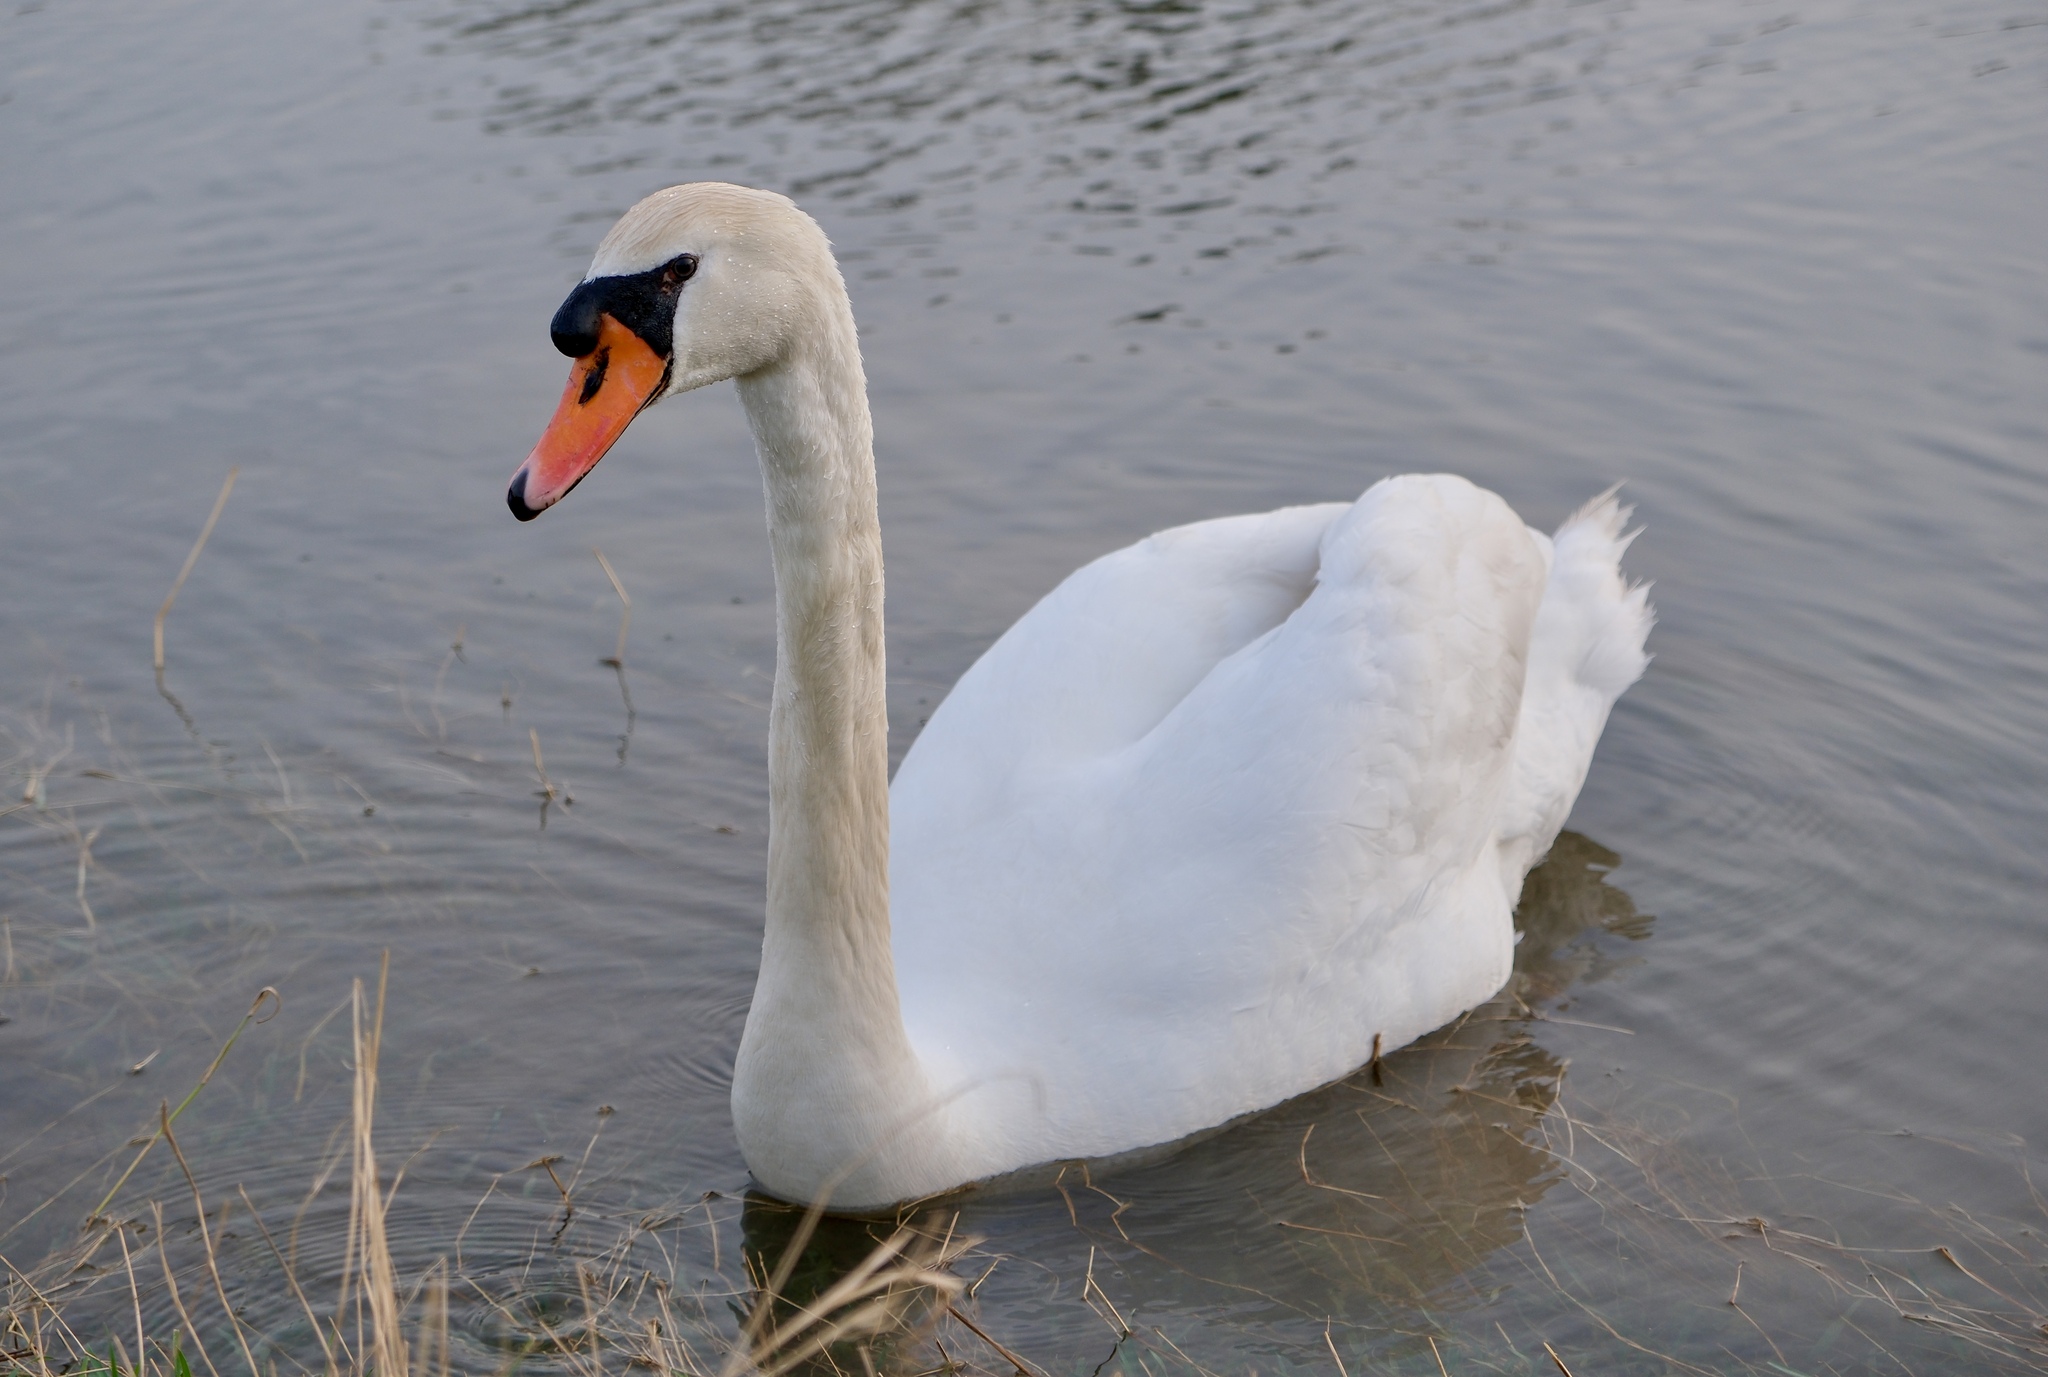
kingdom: Animalia
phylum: Chordata
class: Aves
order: Anseriformes
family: Anatidae
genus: Cygnus
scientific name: Cygnus olor
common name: Mute swan
